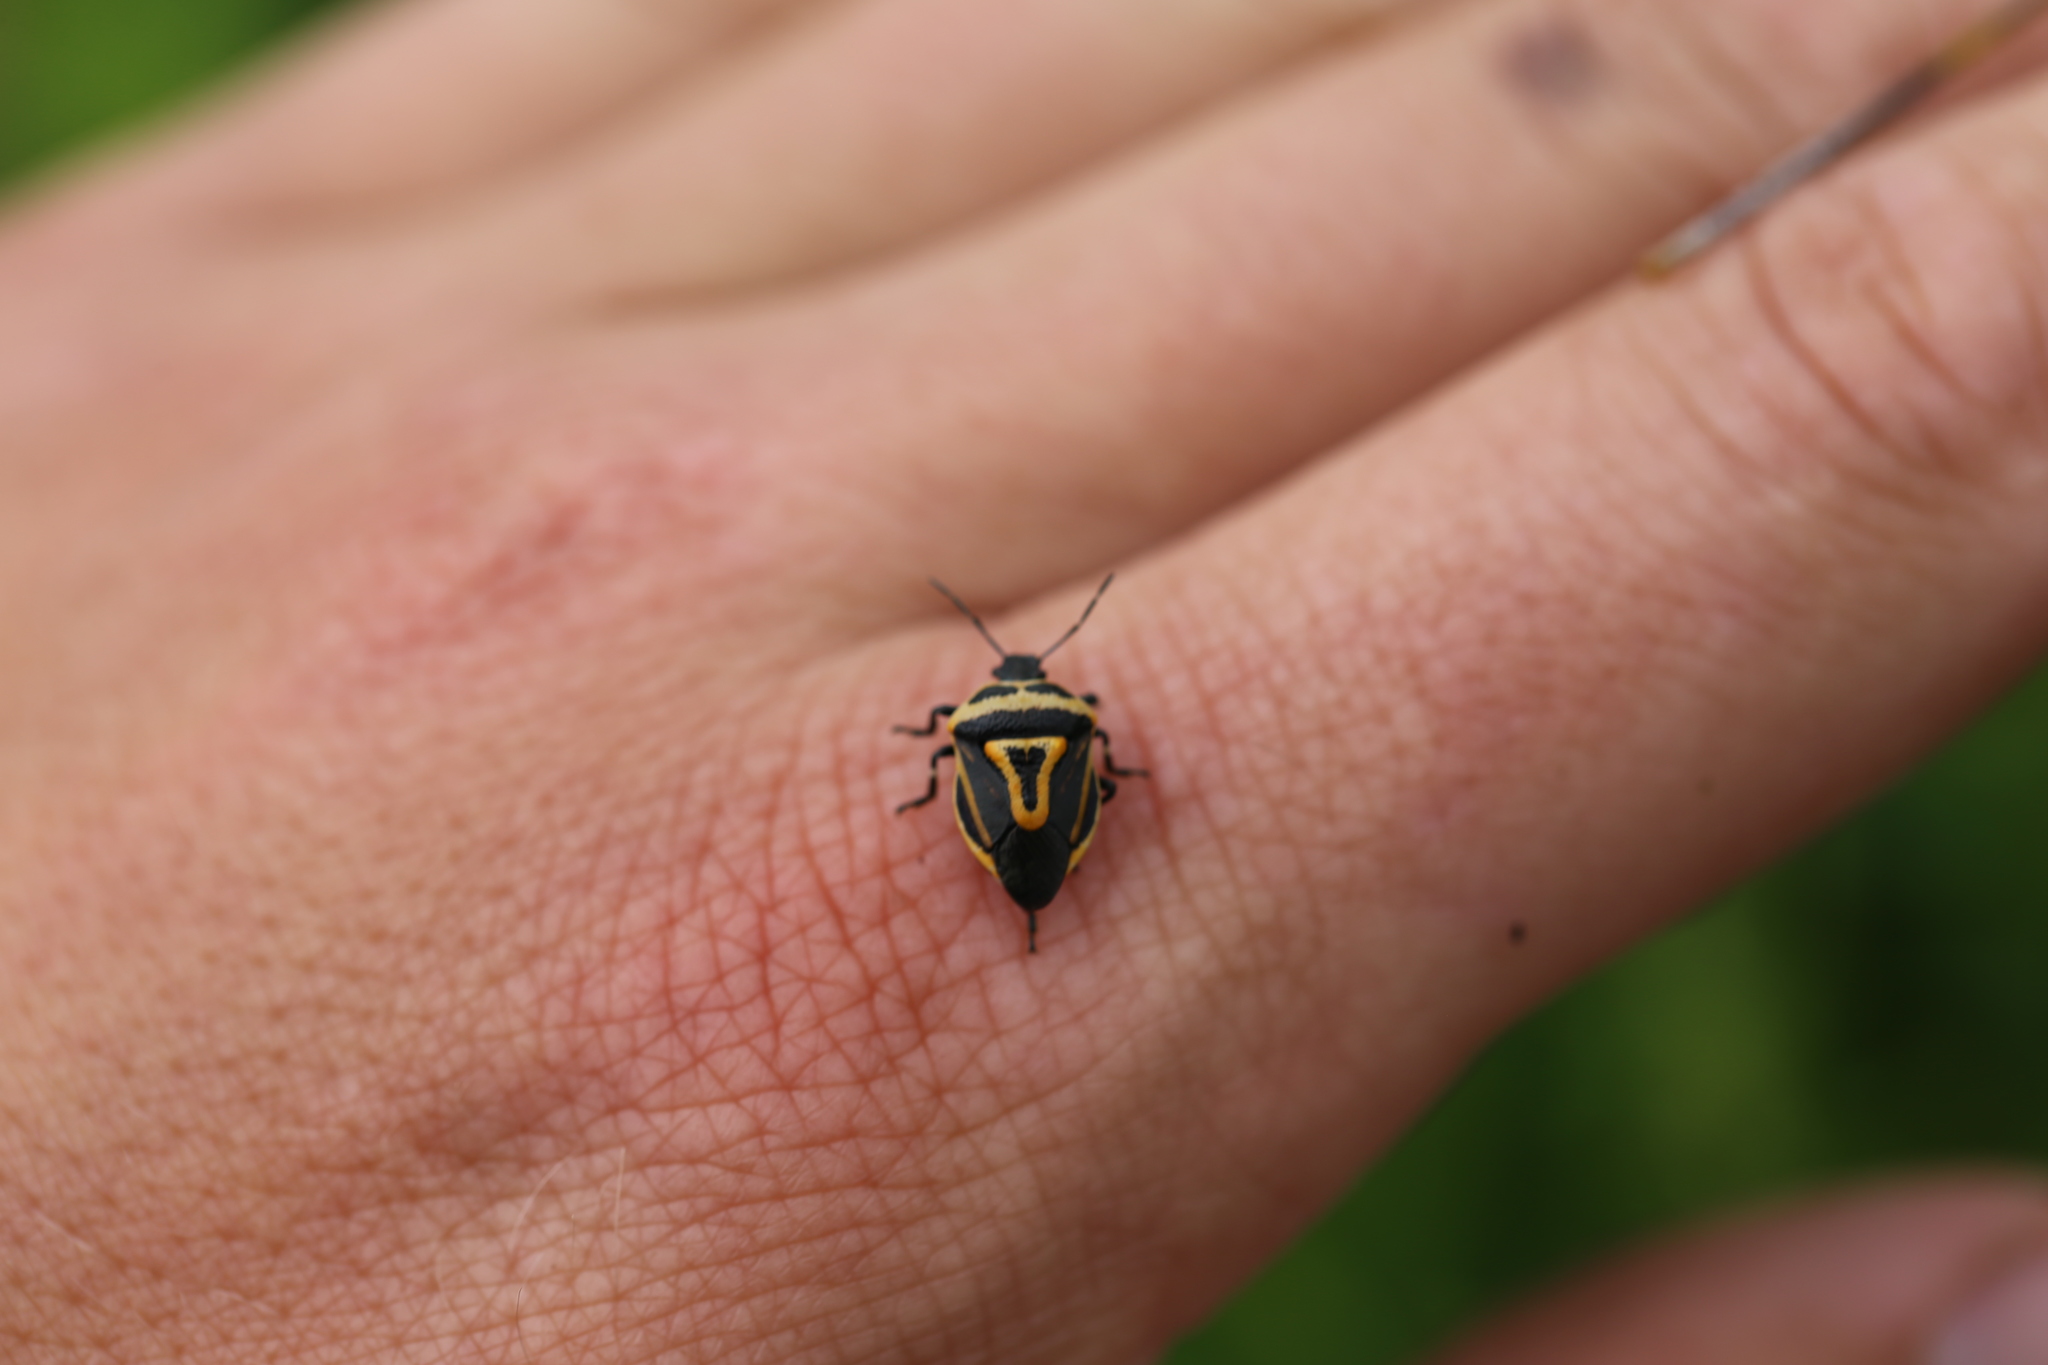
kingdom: Animalia
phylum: Arthropoda
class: Insecta
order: Hemiptera
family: Pentatomidae
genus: Perillus
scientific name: Perillus bioculatus
